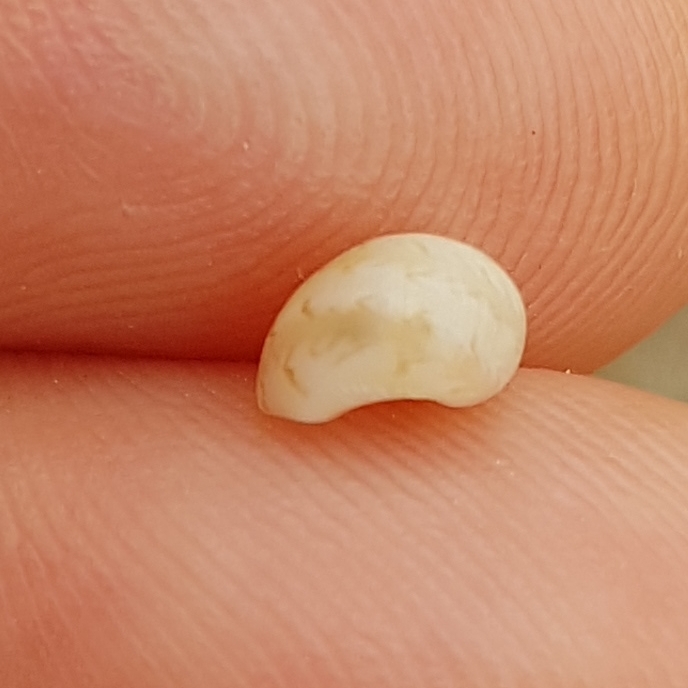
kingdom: Animalia
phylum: Mollusca
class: Gastropoda
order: Littorinimorpha
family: Naticidae
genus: Euspira
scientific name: Euspira nitida
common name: Alder's necklace shell
